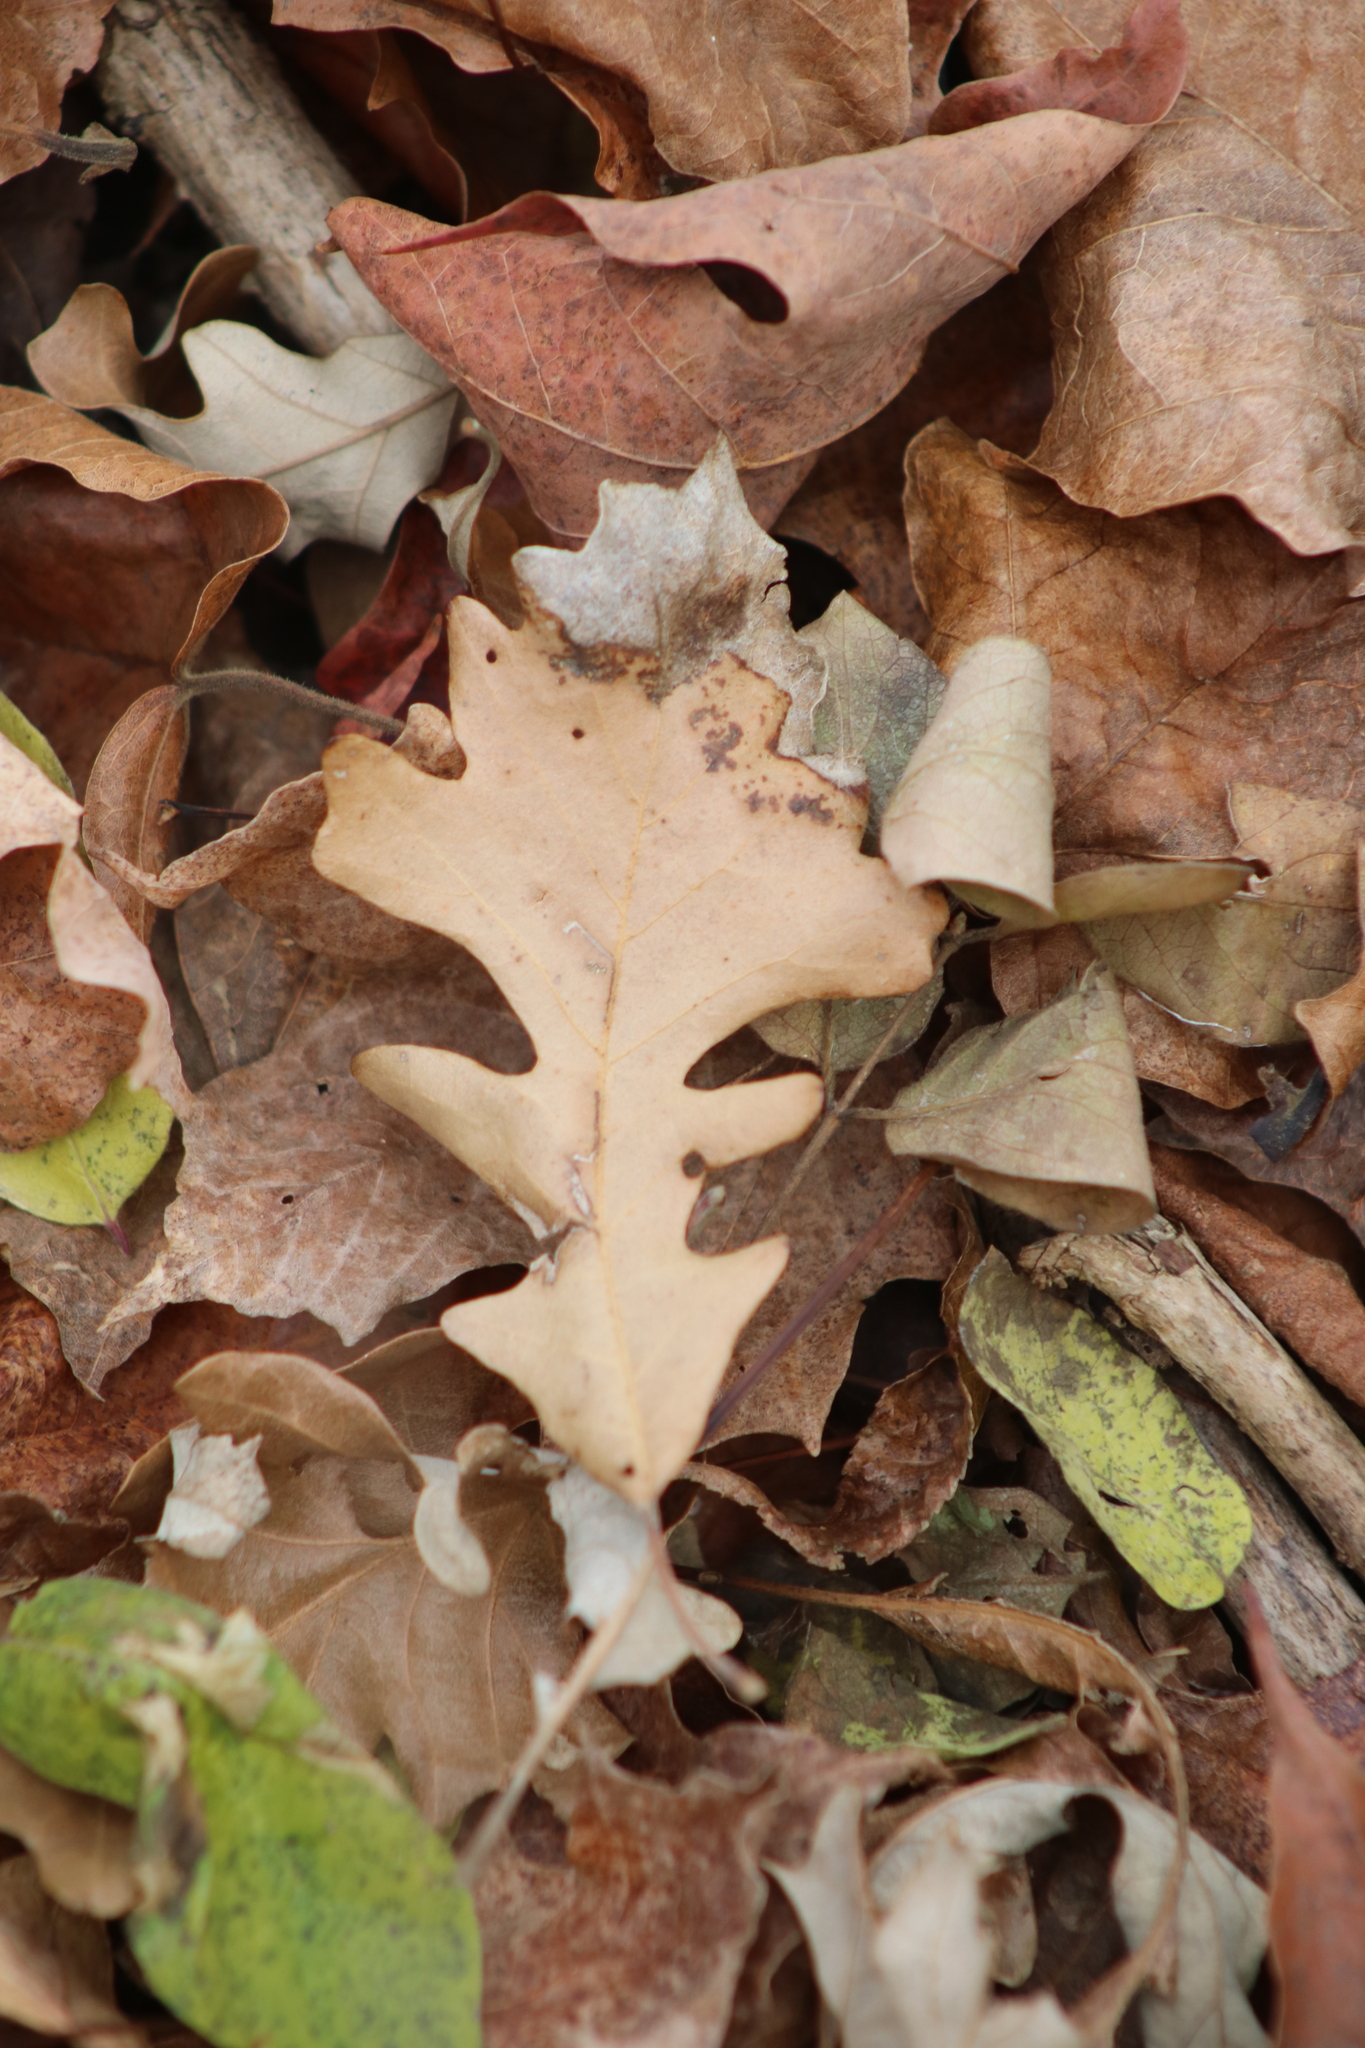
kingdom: Plantae
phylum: Tracheophyta
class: Magnoliopsida
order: Fagales
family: Fagaceae
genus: Quercus
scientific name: Quercus macrocarpa
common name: Bur oak
